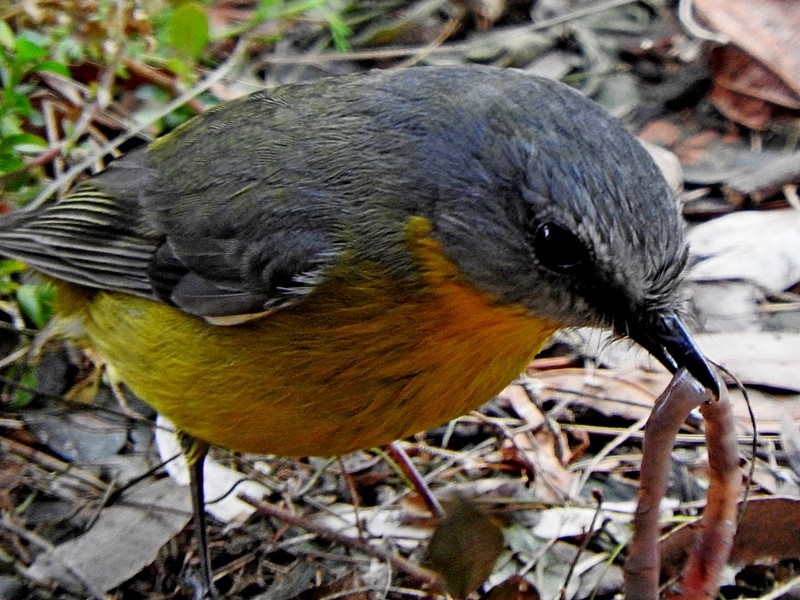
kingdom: Animalia
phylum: Chordata
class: Aves
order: Passeriformes
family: Petroicidae
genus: Eopsaltria
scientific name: Eopsaltria australis
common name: Eastern yellow robin
